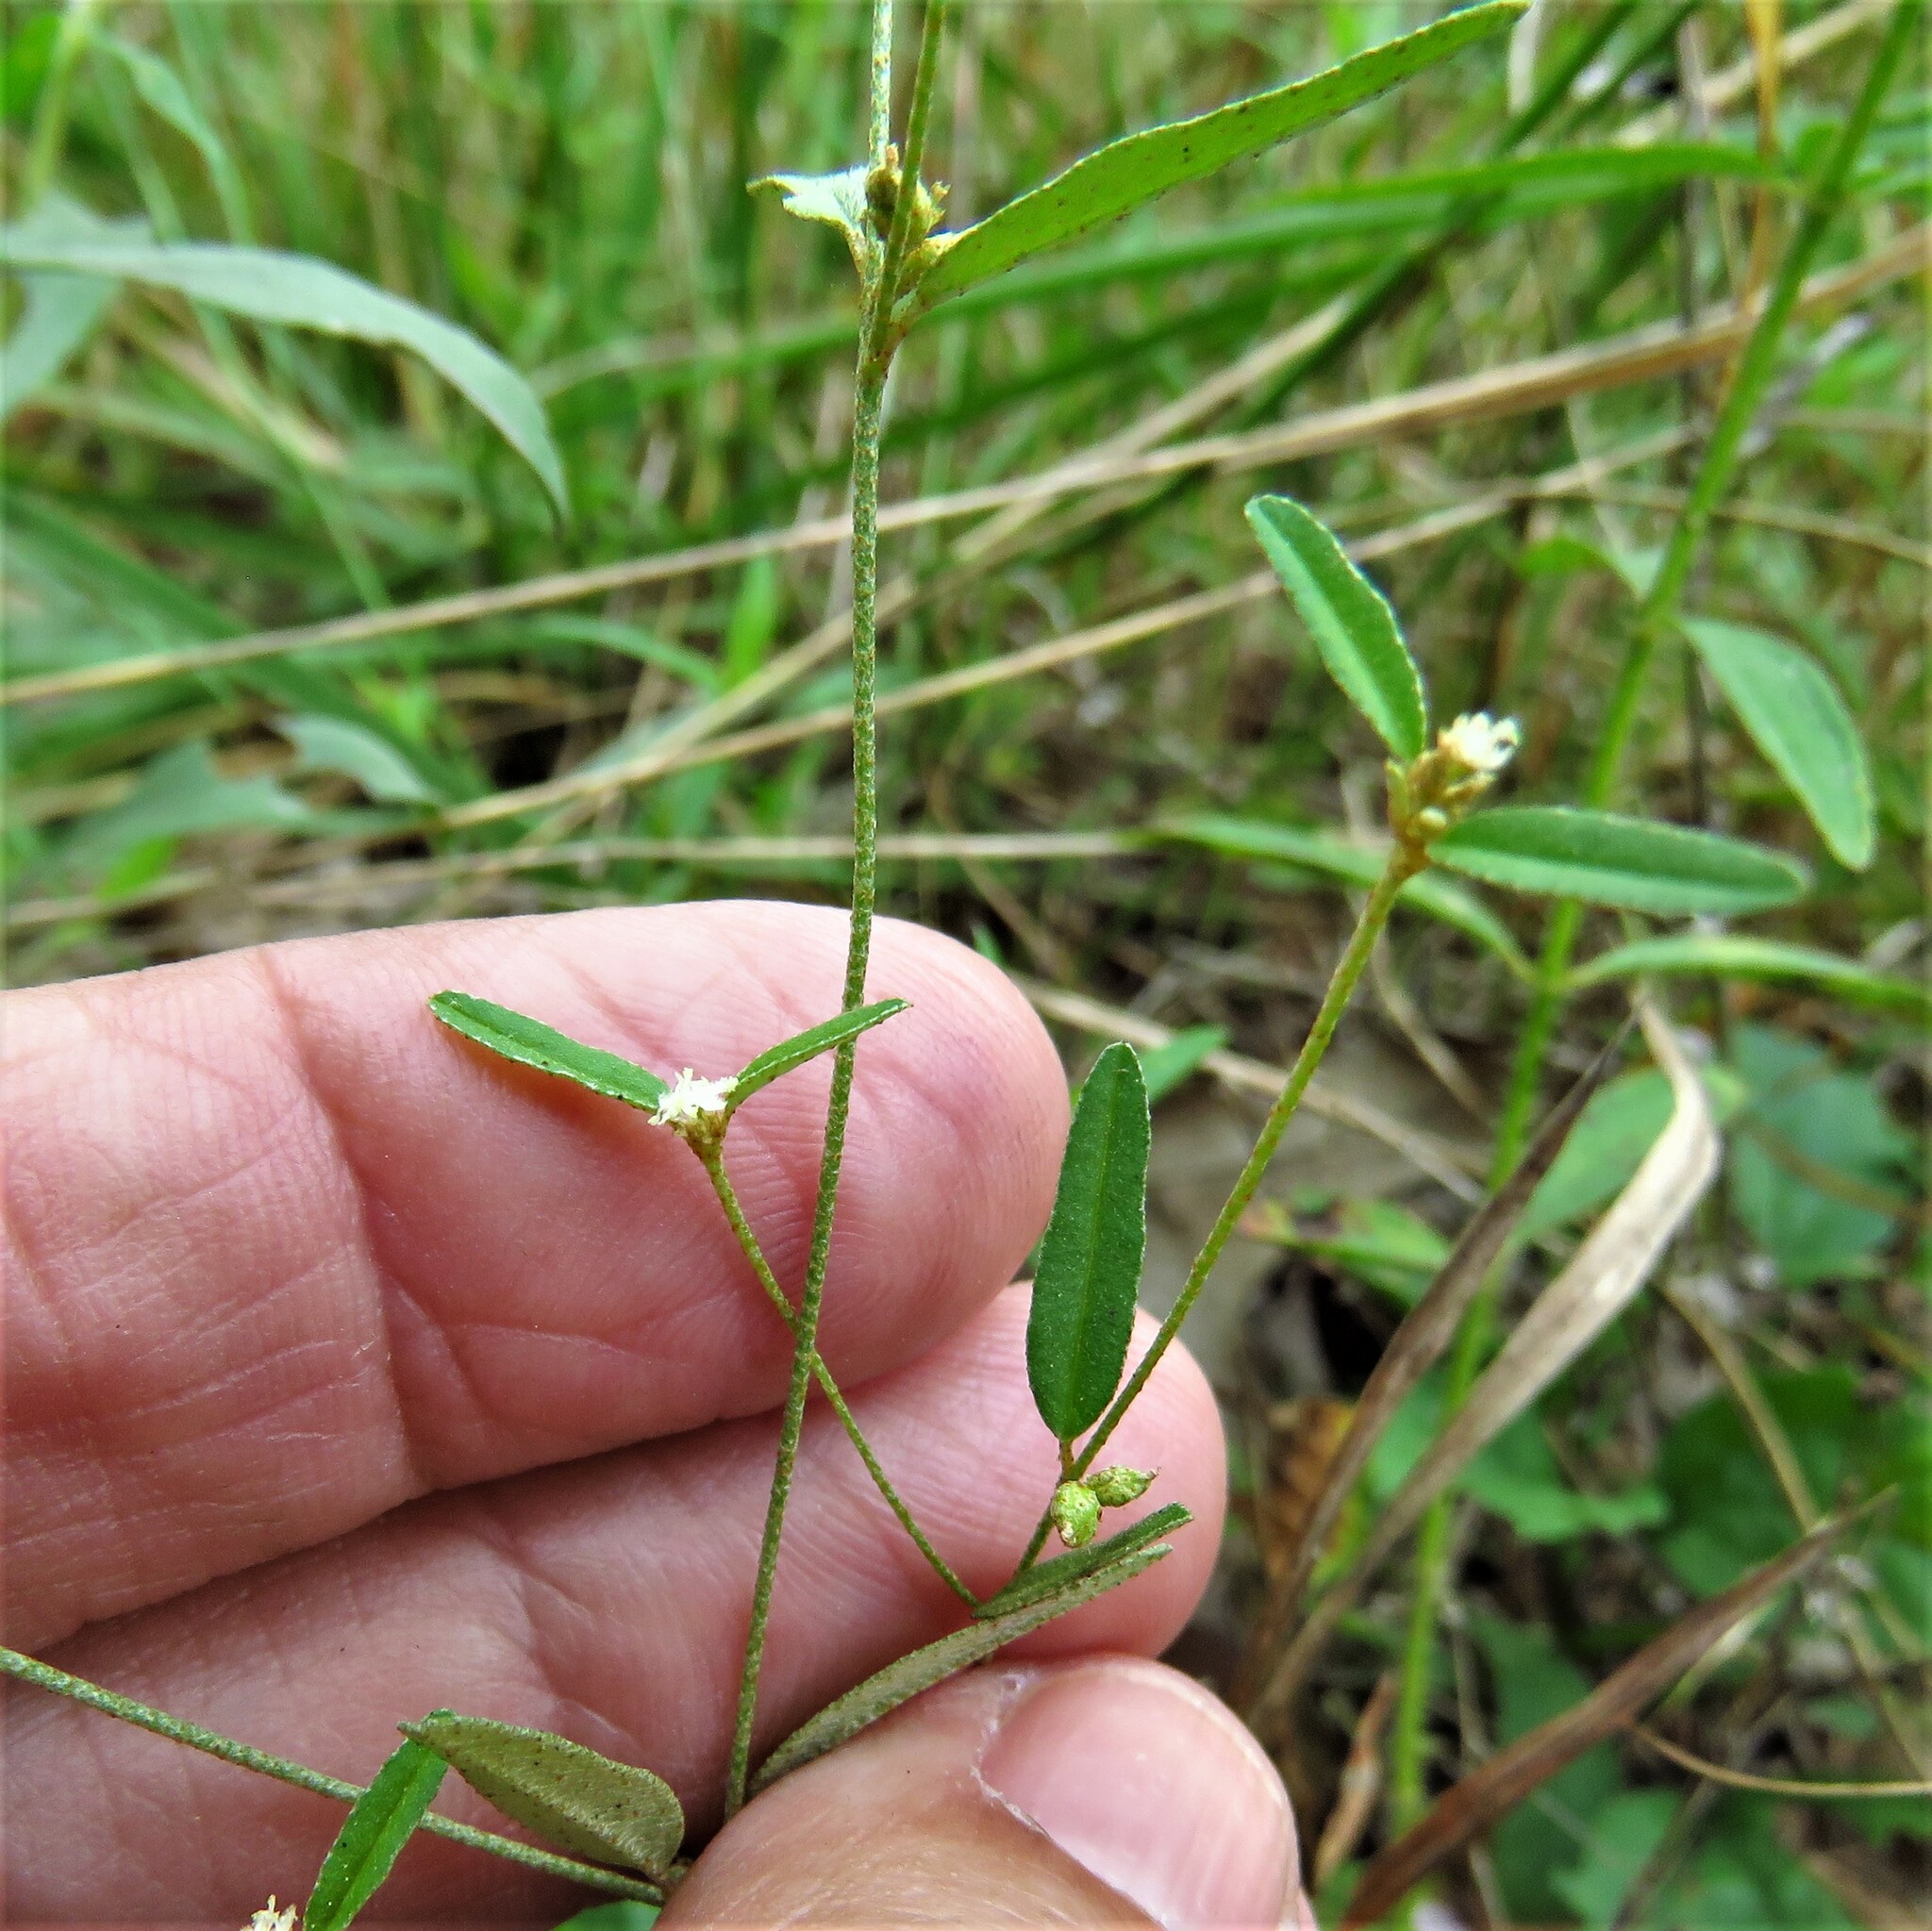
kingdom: Plantae
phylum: Tracheophyta
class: Magnoliopsida
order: Malpighiales
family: Euphorbiaceae
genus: Croton
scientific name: Croton michauxii
